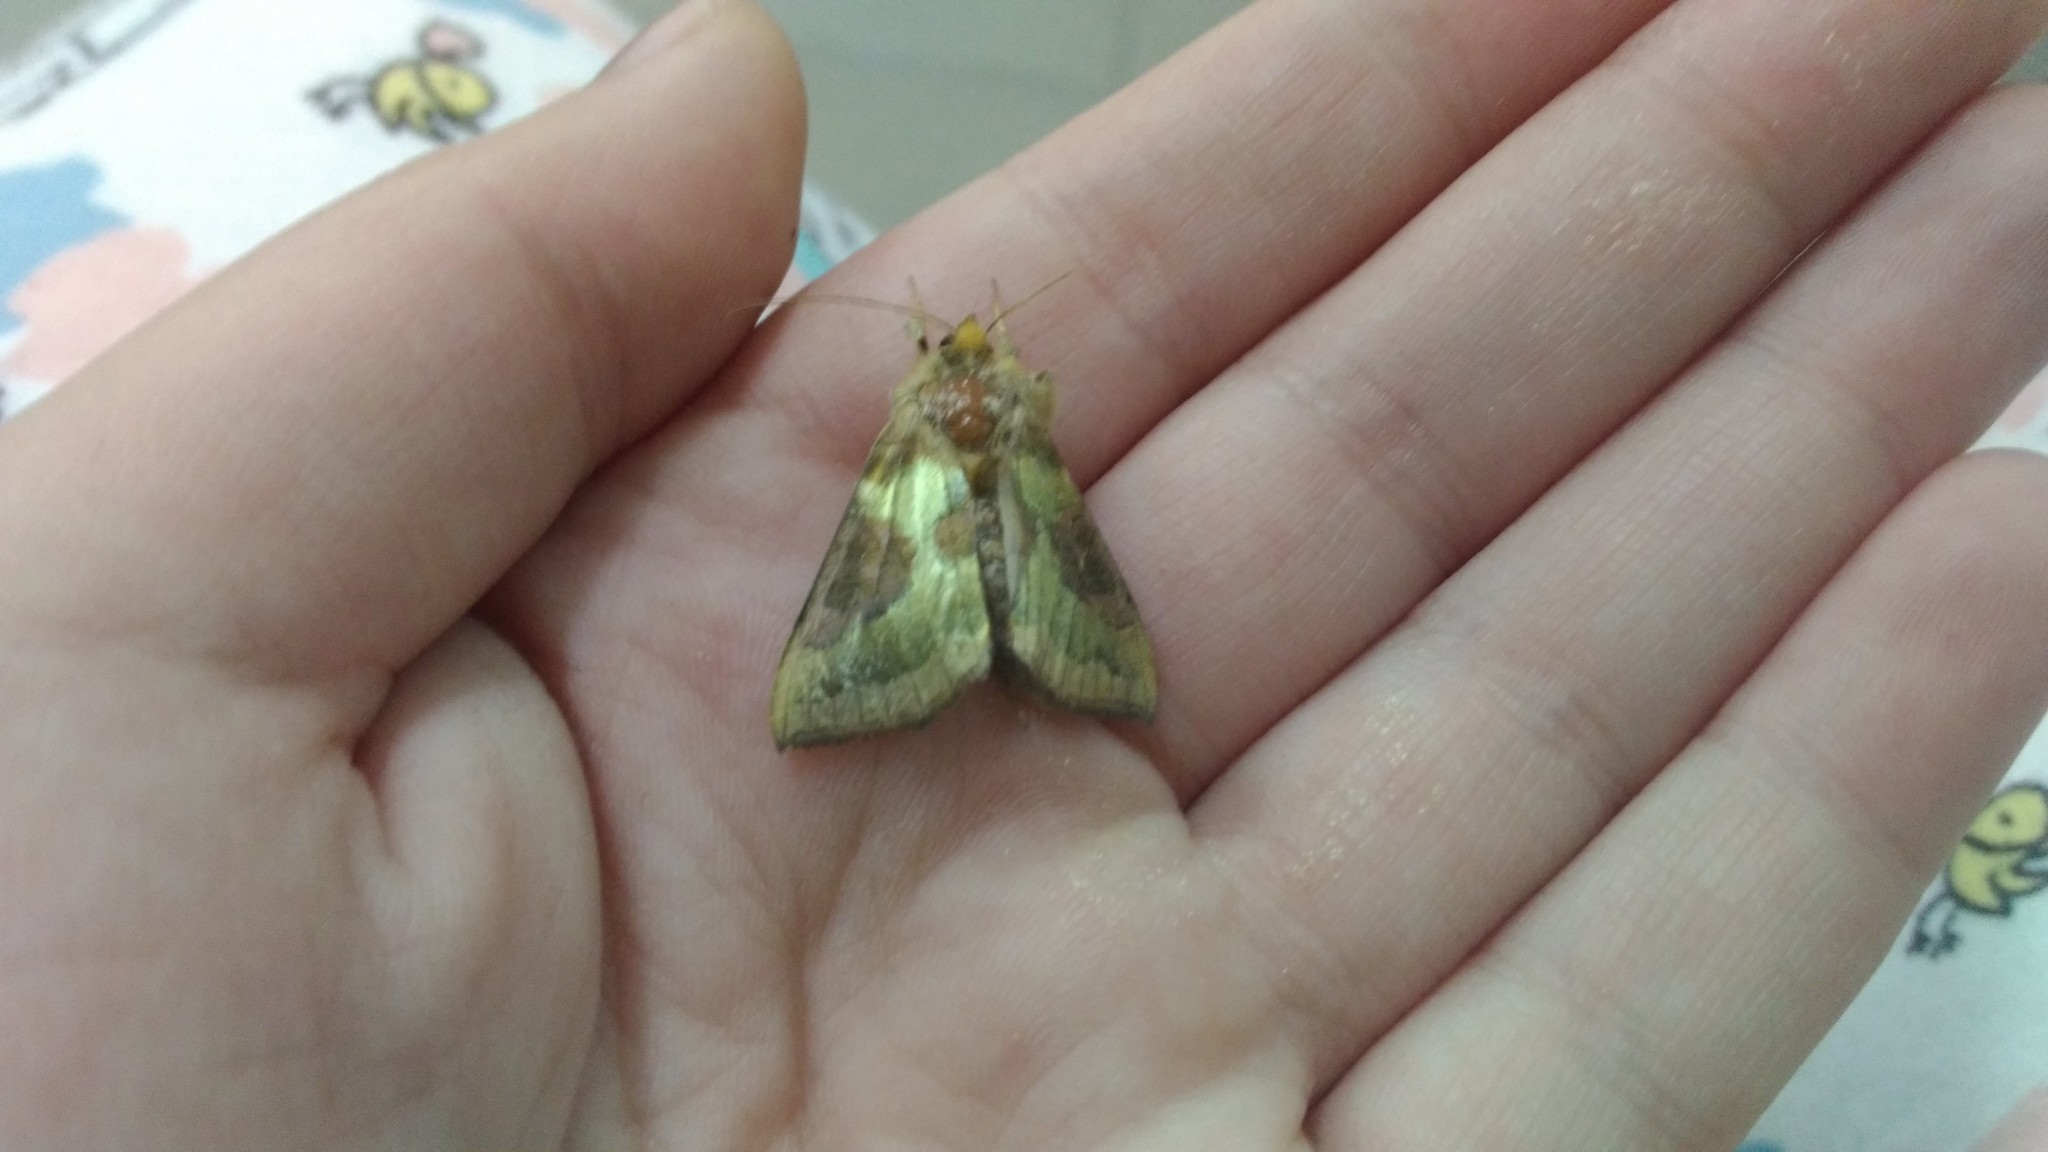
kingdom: Animalia
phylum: Arthropoda
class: Insecta
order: Lepidoptera
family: Noctuidae
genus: Diachrysia
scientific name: Diachrysia stenochrysis
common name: Cryptic burnished brass
